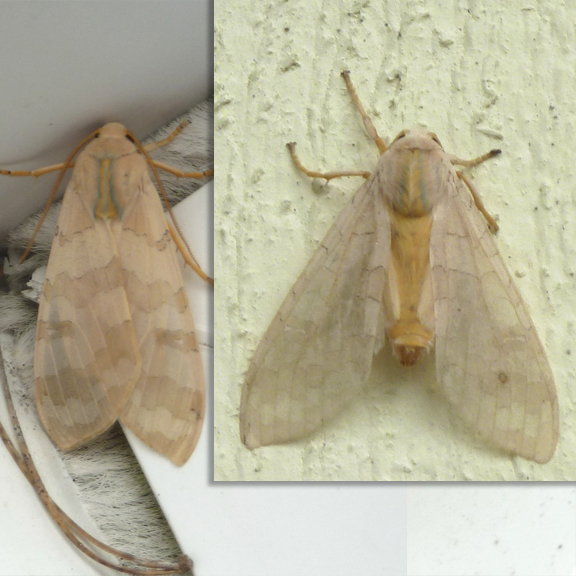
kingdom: Animalia
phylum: Arthropoda
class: Insecta
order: Lepidoptera
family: Erebidae
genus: Halysidota
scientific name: Halysidota tessellaris
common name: Banded tussock moth
